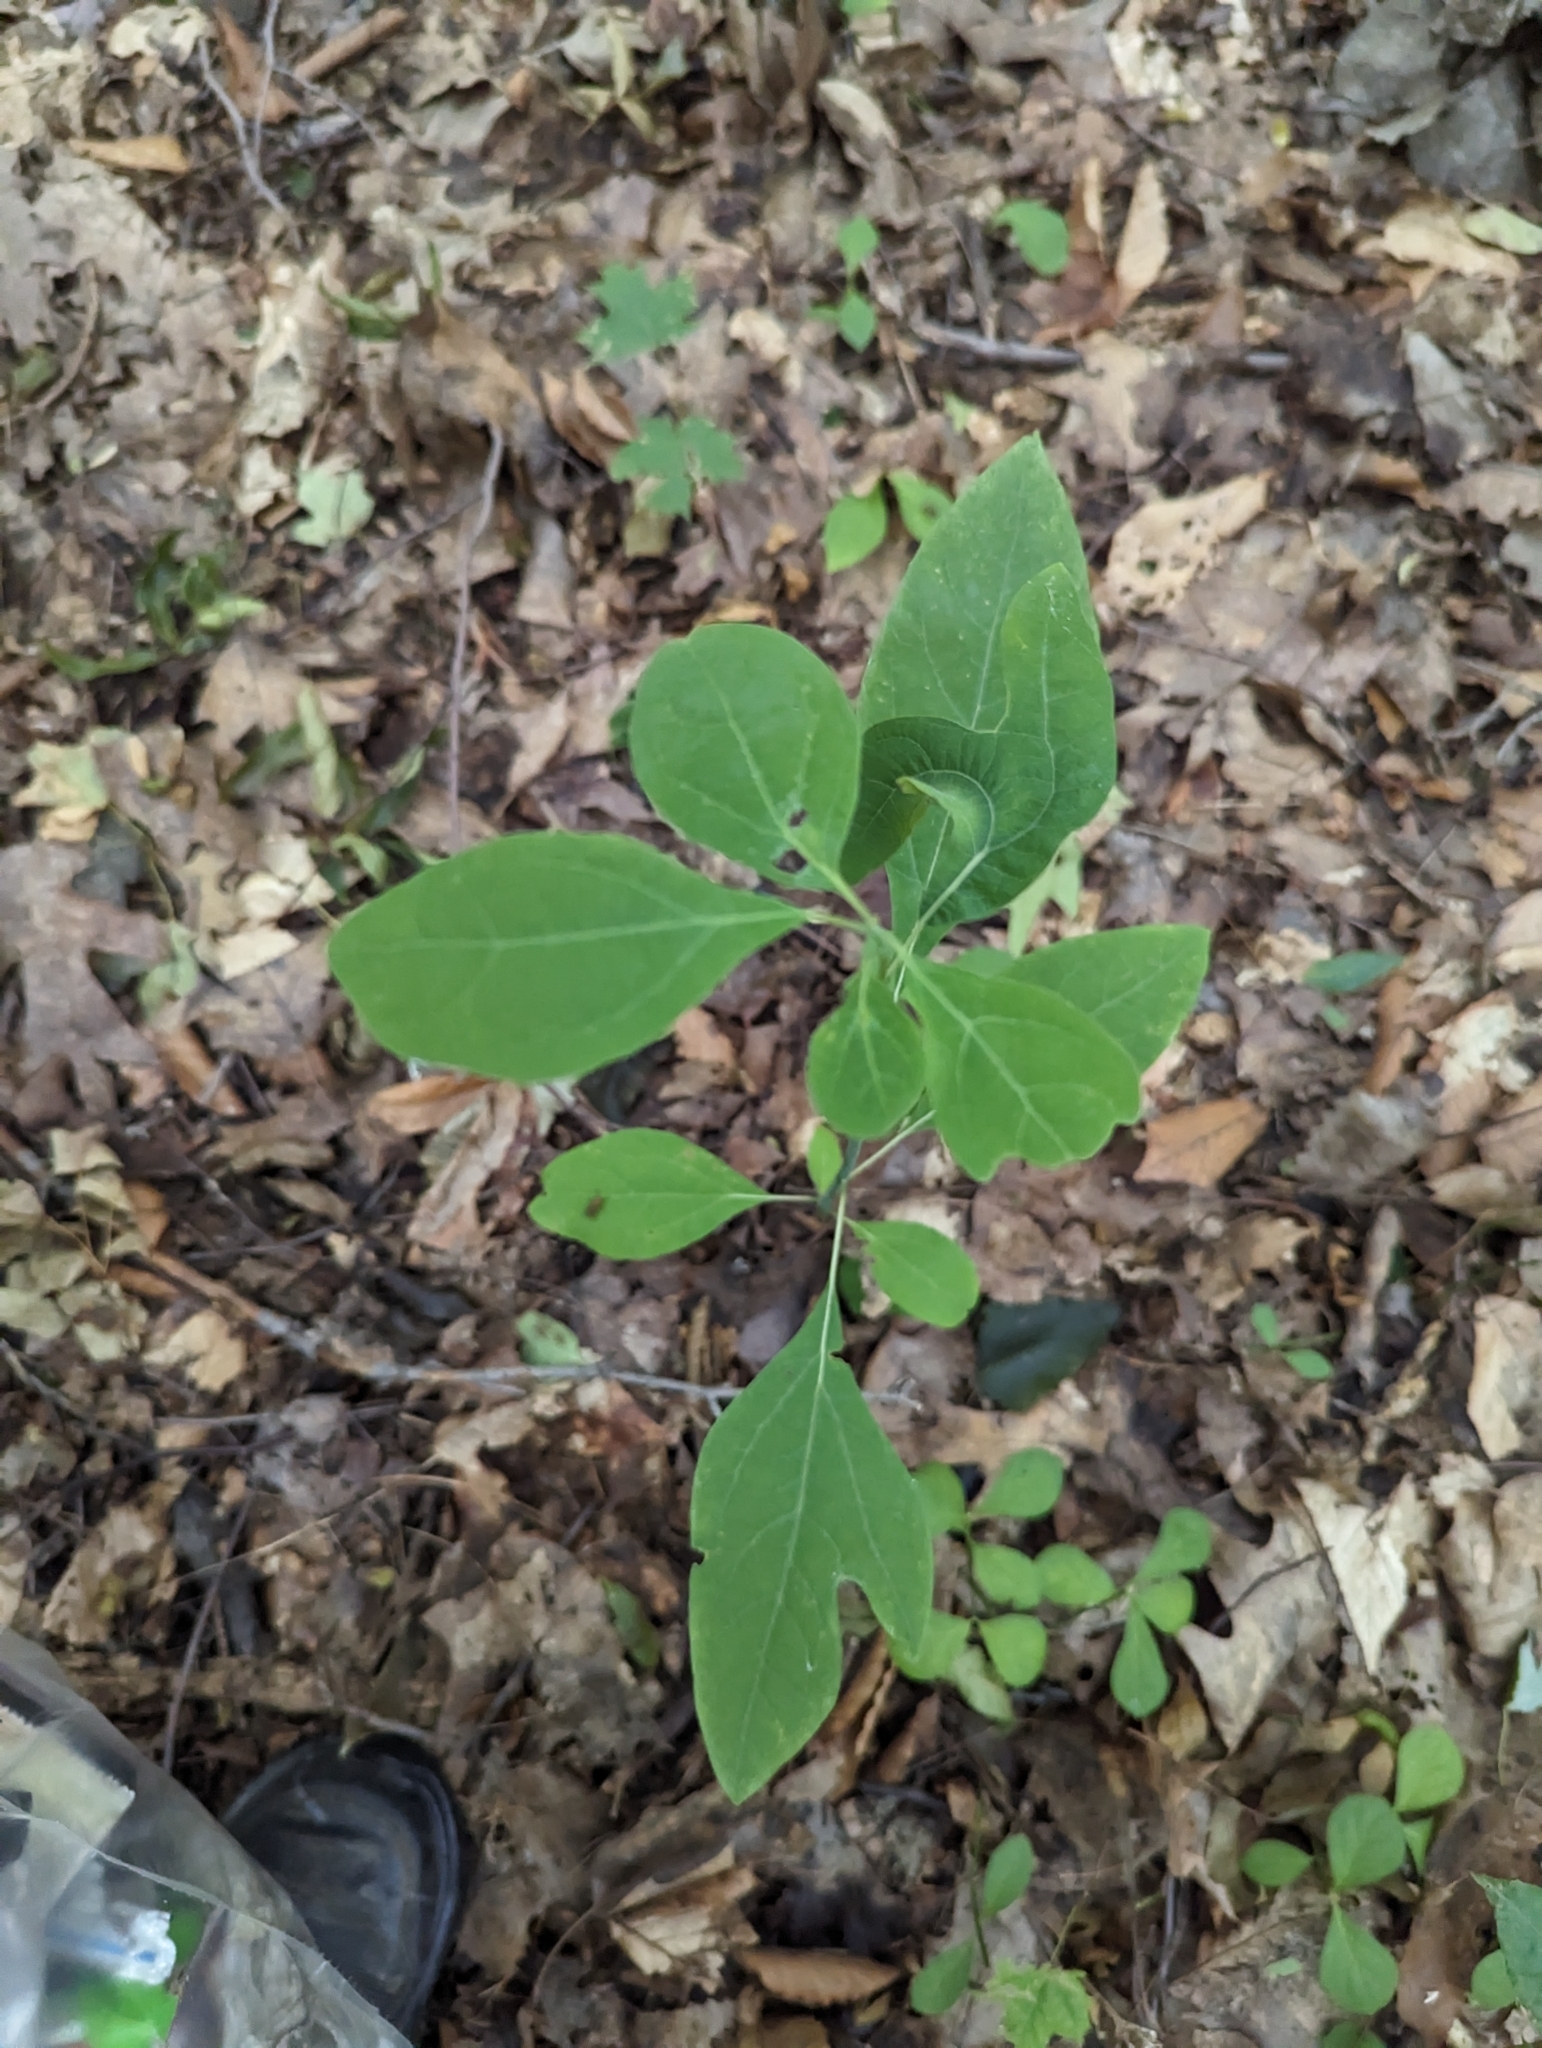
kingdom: Plantae
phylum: Tracheophyta
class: Magnoliopsida
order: Laurales
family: Lauraceae
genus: Sassafras
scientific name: Sassafras albidum
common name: Sassafras
